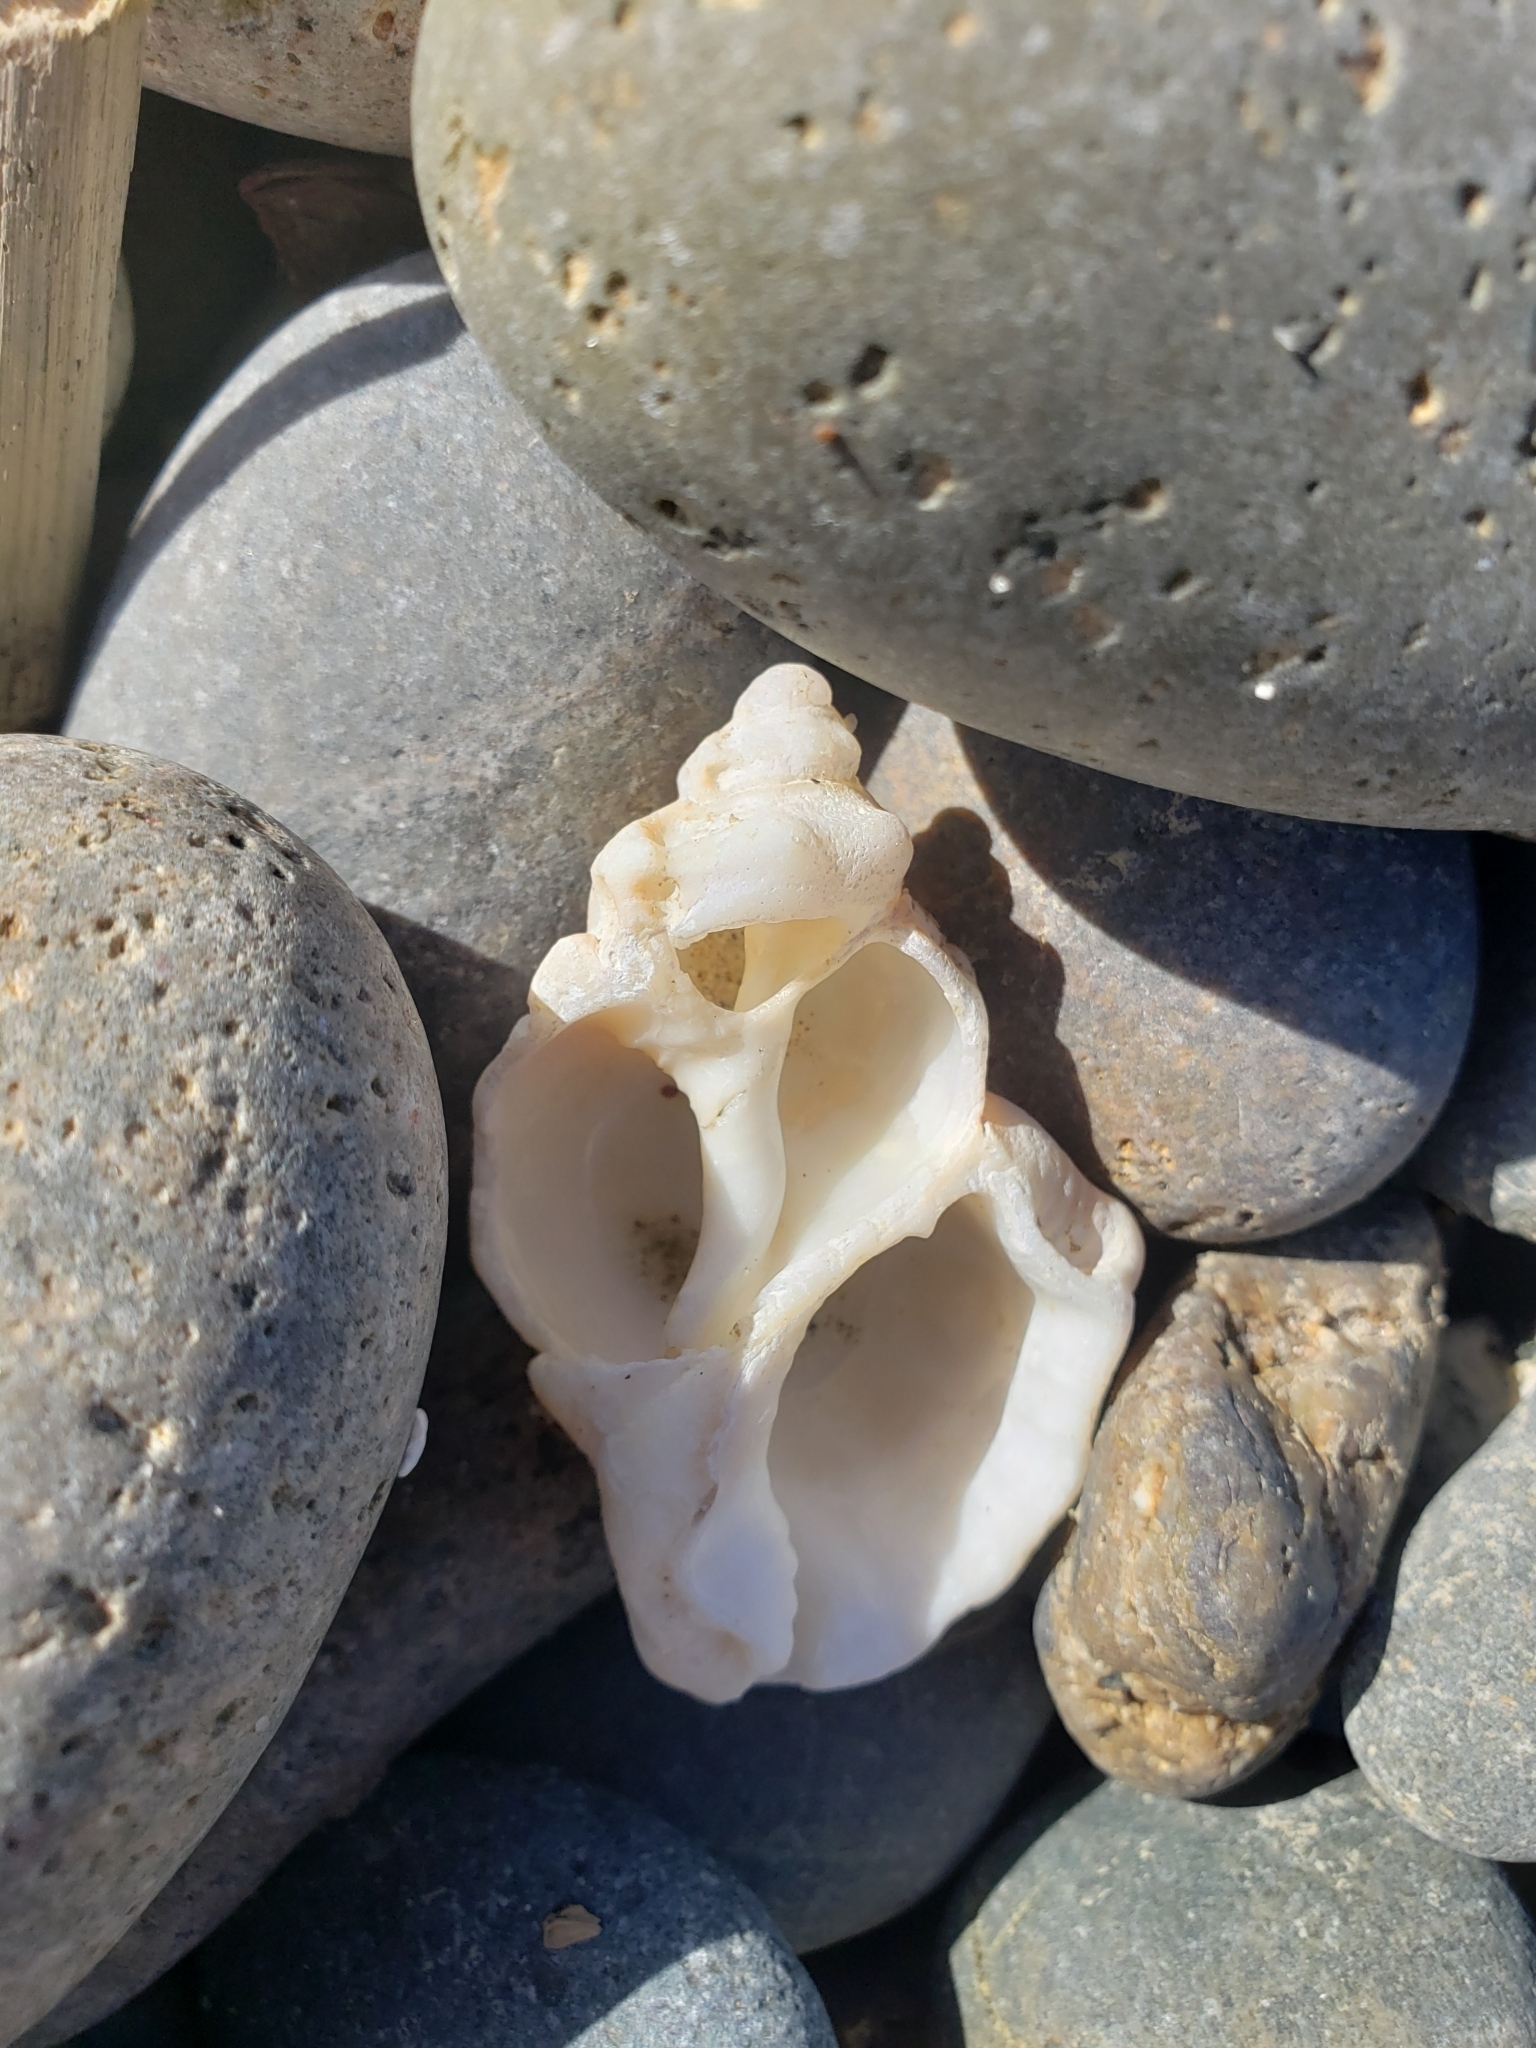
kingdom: Animalia
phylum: Mollusca
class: Gastropoda
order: Littorinimorpha
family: Bursidae
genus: Crossata
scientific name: Crossata californica
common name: California frogsnail
